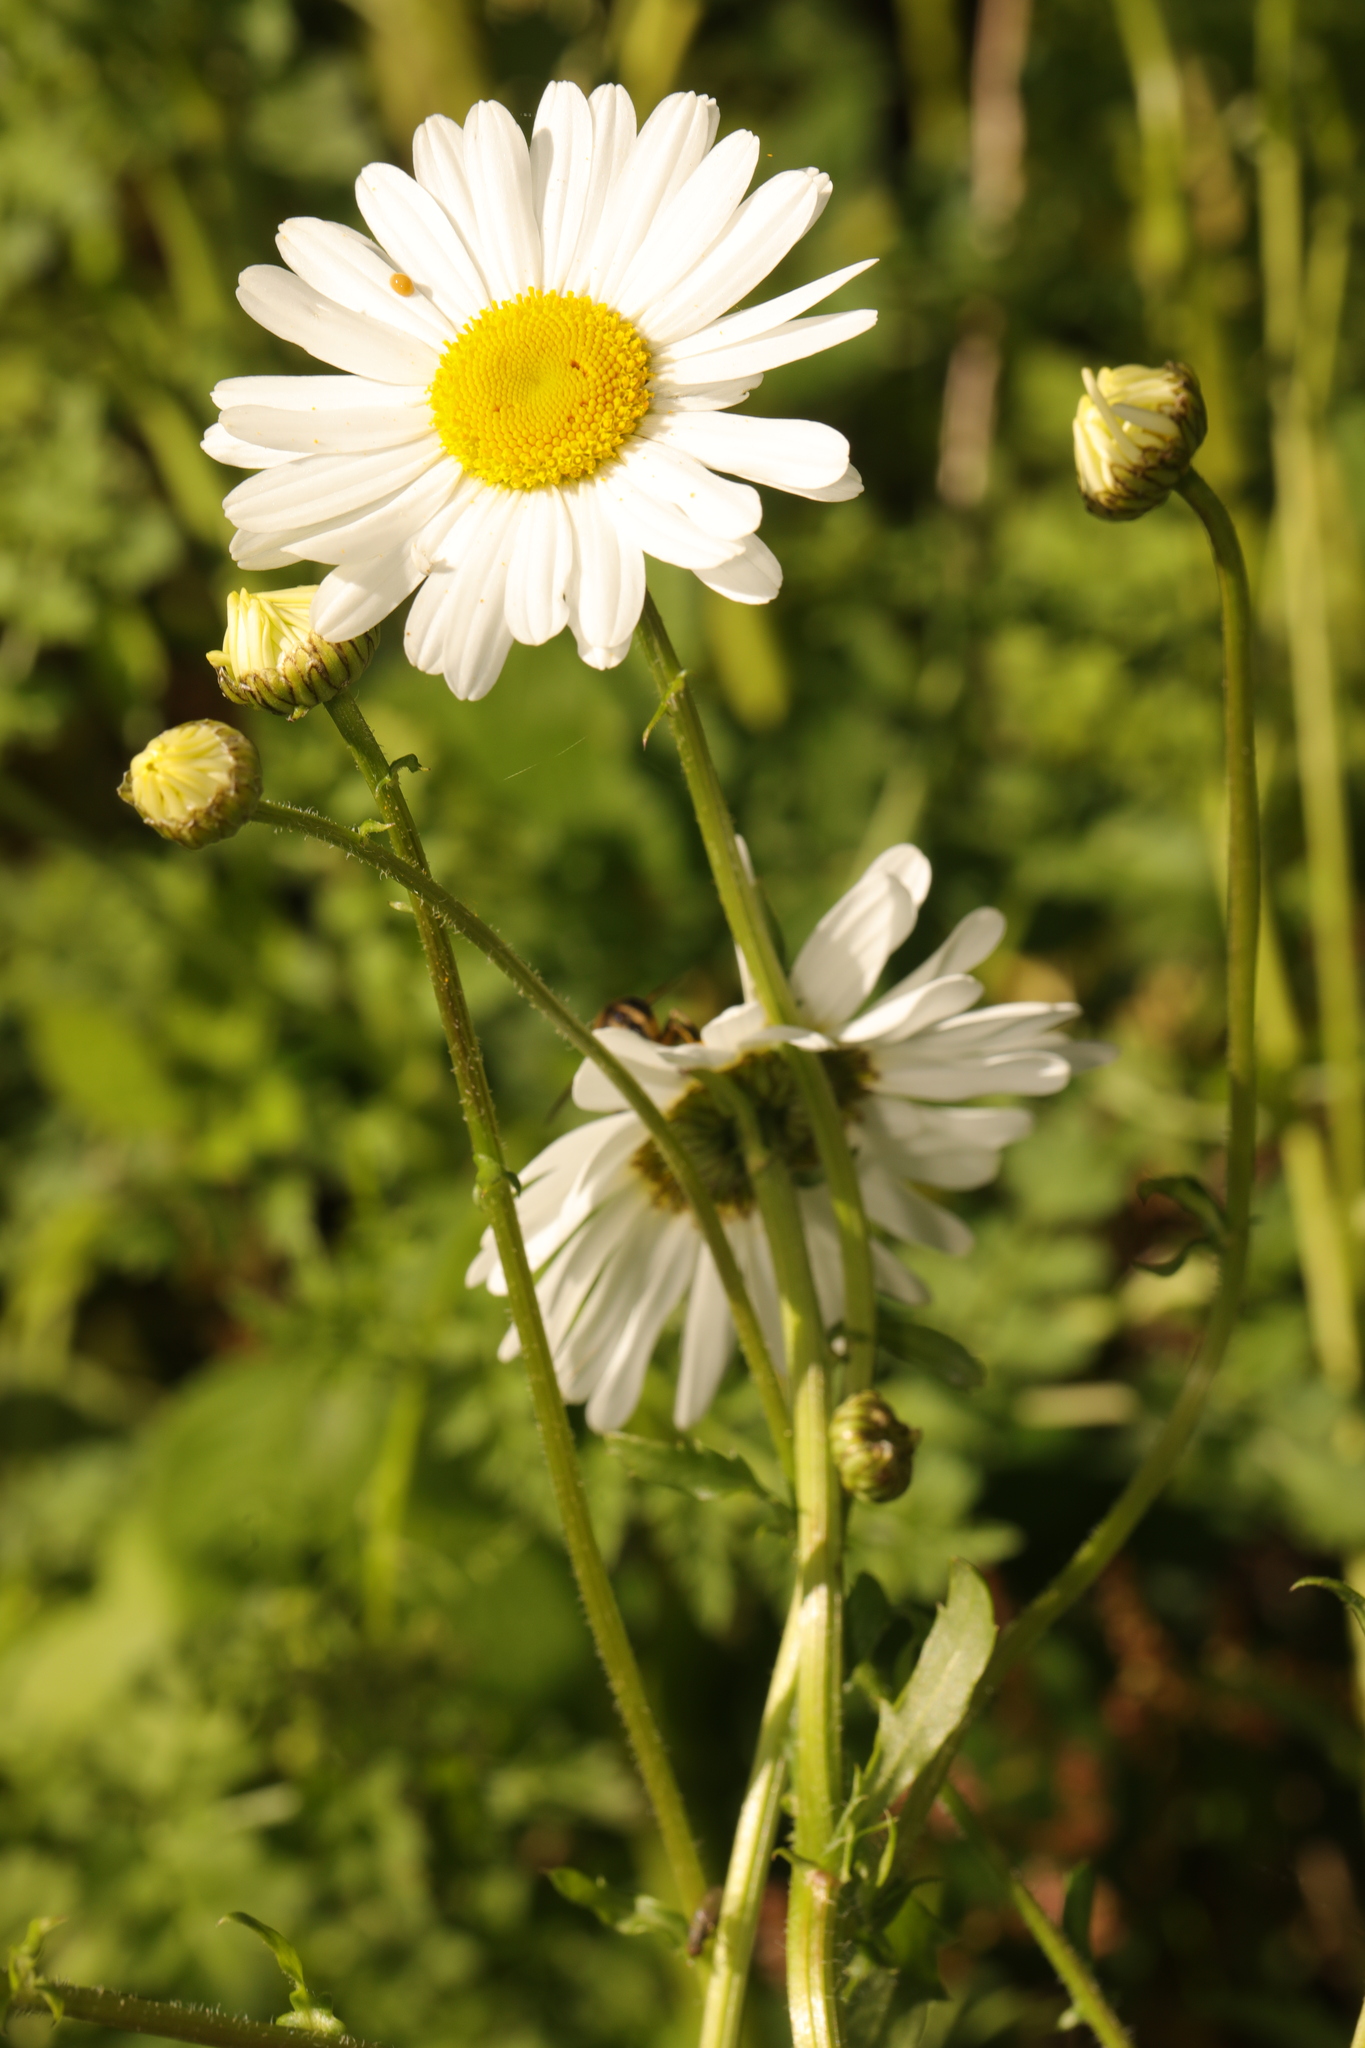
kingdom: Plantae
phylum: Tracheophyta
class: Magnoliopsida
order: Asterales
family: Asteraceae
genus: Leucanthemum
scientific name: Leucanthemum vulgare
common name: Oxeye daisy
